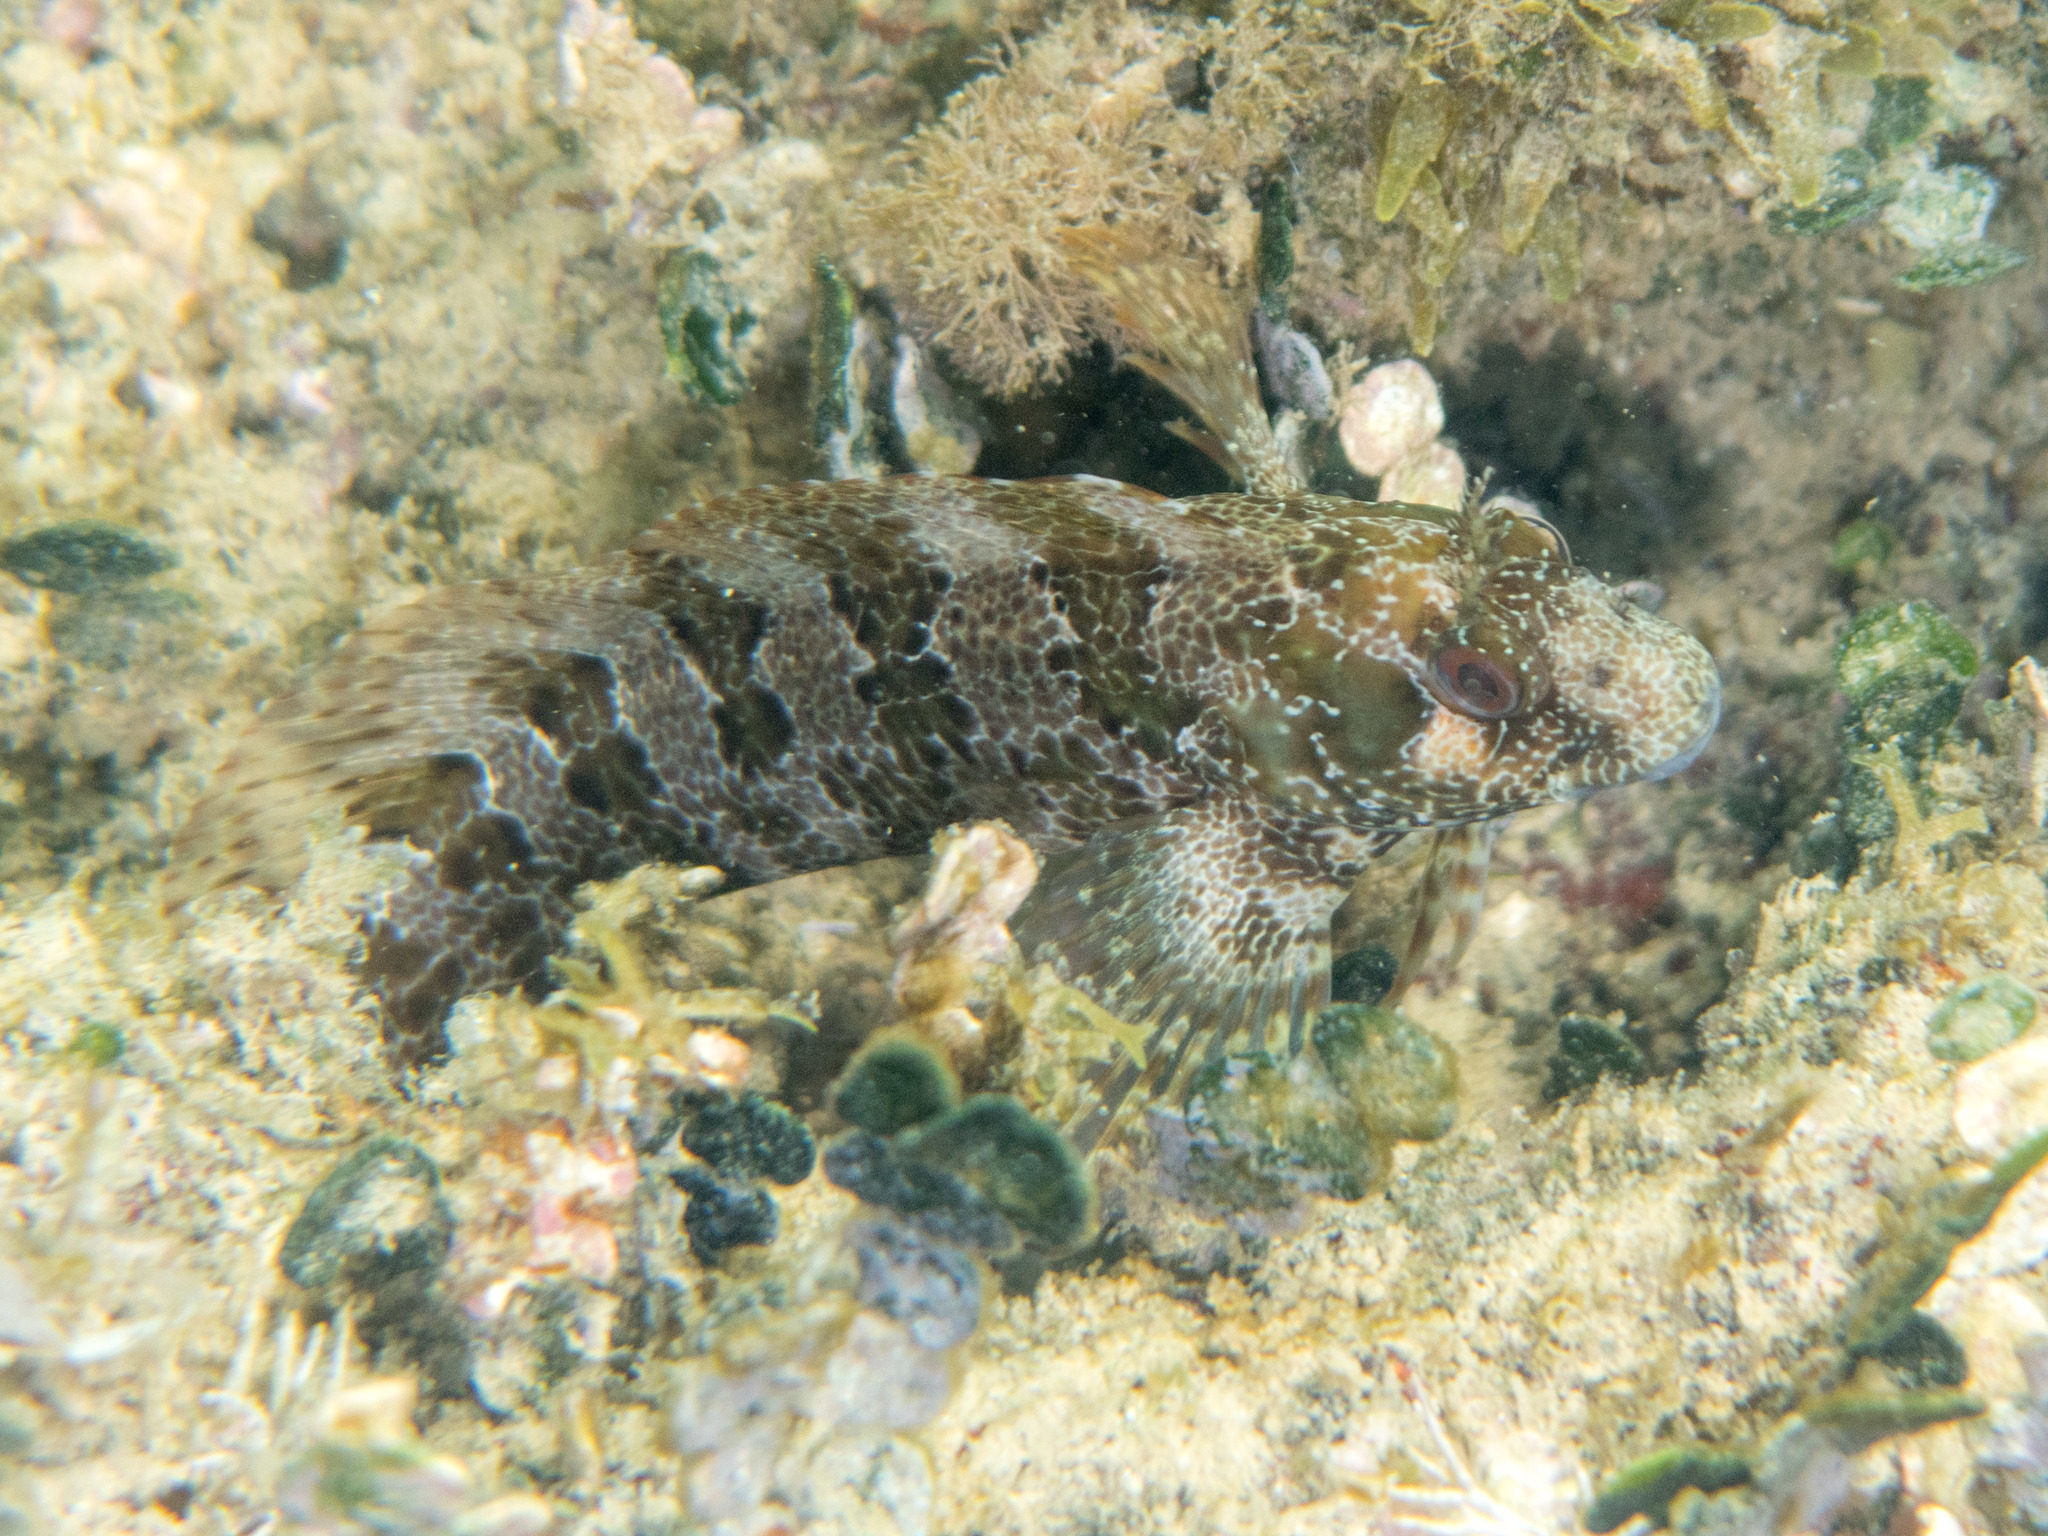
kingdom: Animalia
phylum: Chordata
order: Perciformes
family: Blenniidae
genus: Parablennius
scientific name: Parablennius gattorugine
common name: Tompot blenny
